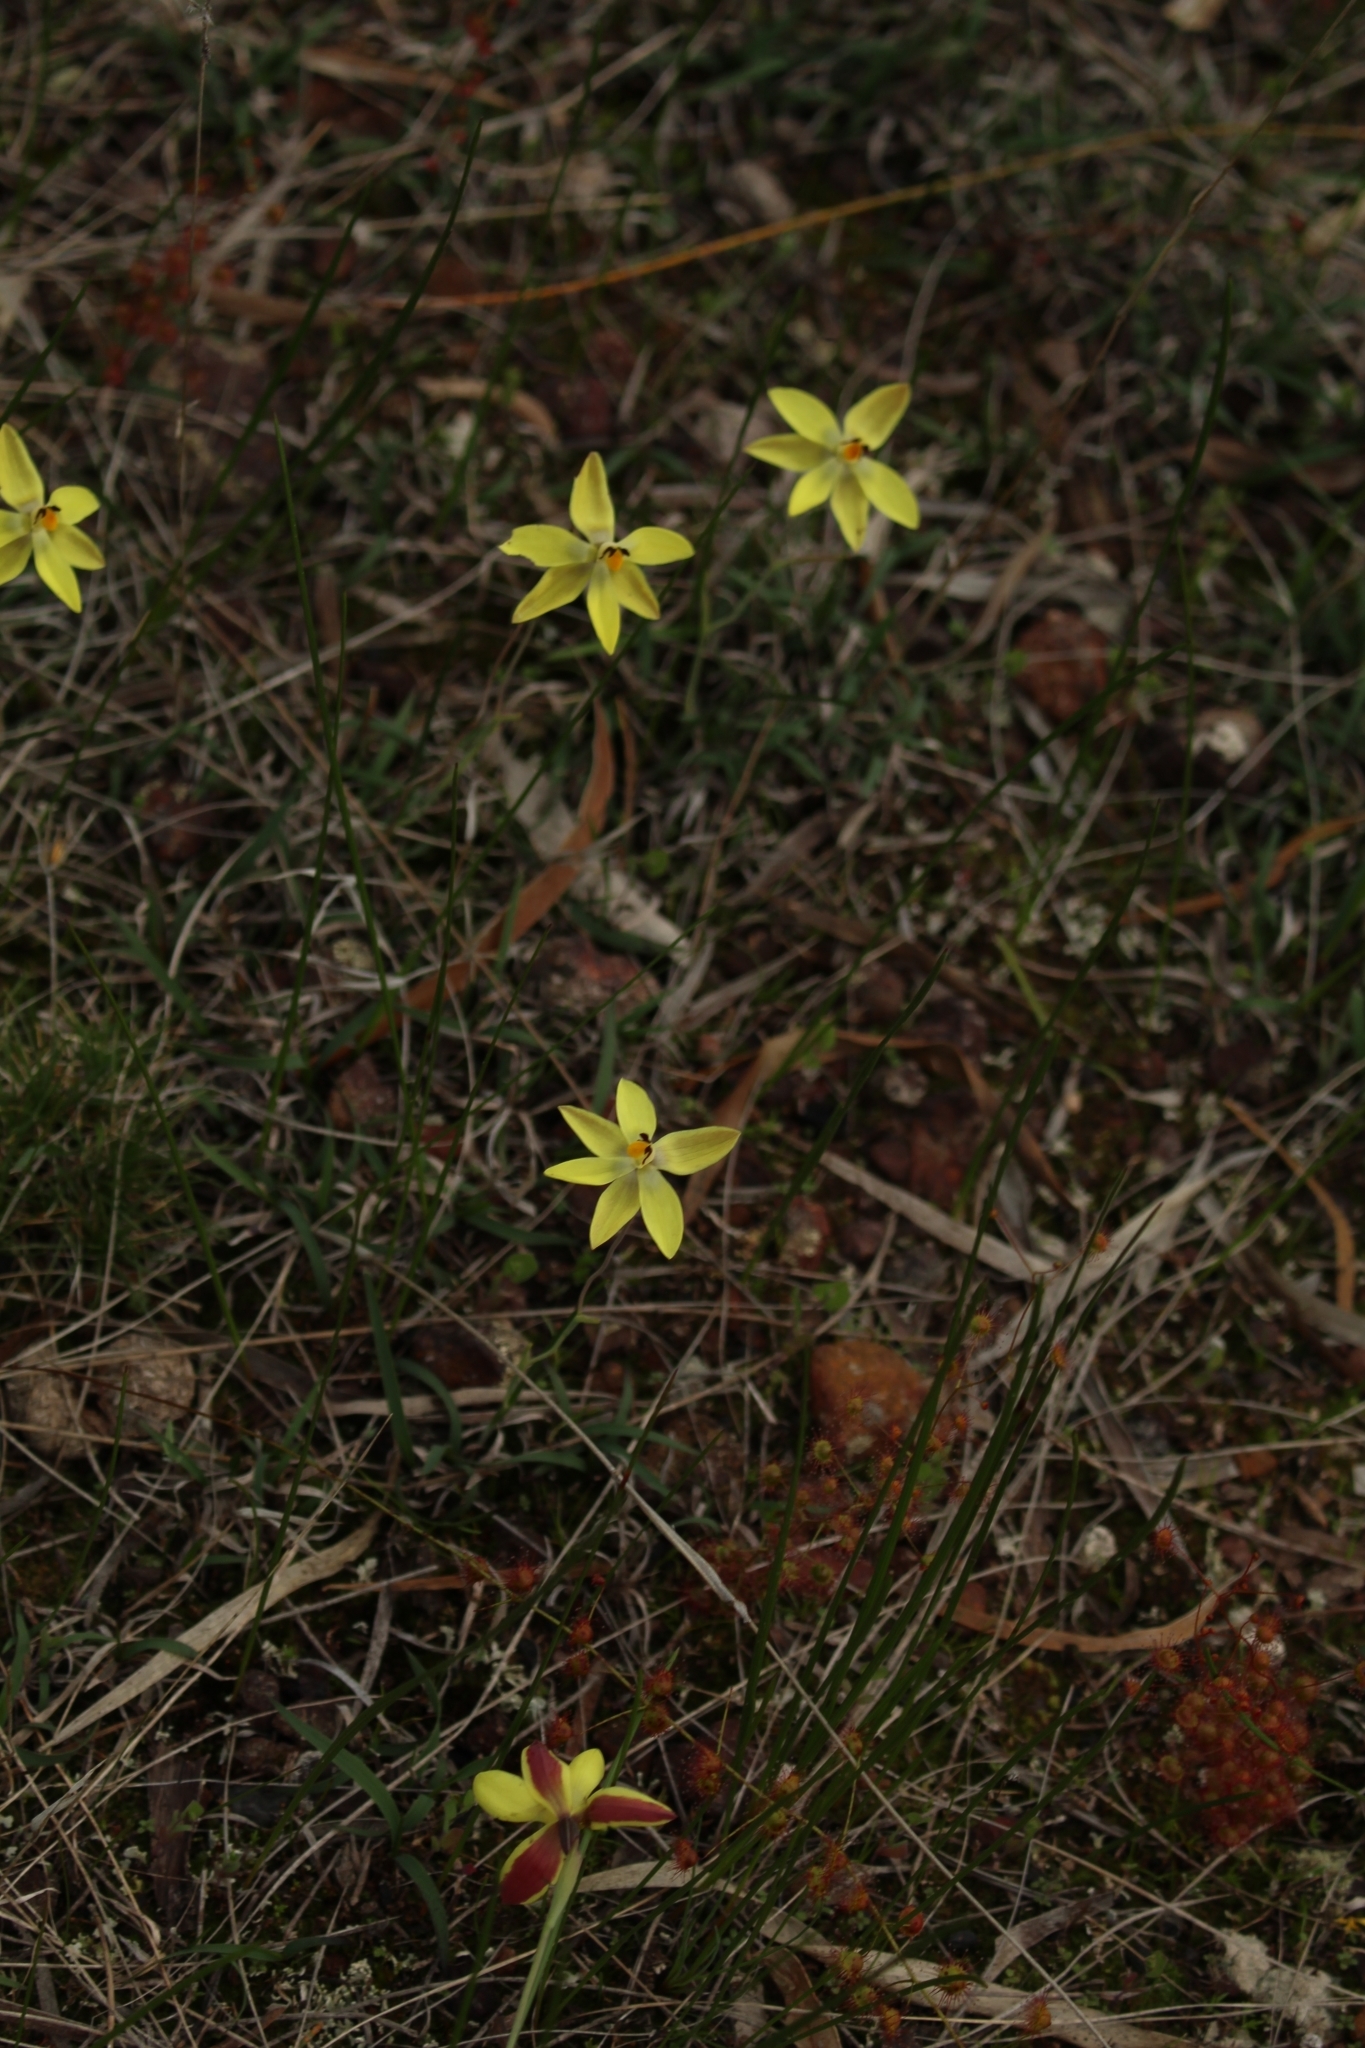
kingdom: Plantae
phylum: Tracheophyta
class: Liliopsida
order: Asparagales
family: Orchidaceae
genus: Thelymitra
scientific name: Thelymitra antennifera
